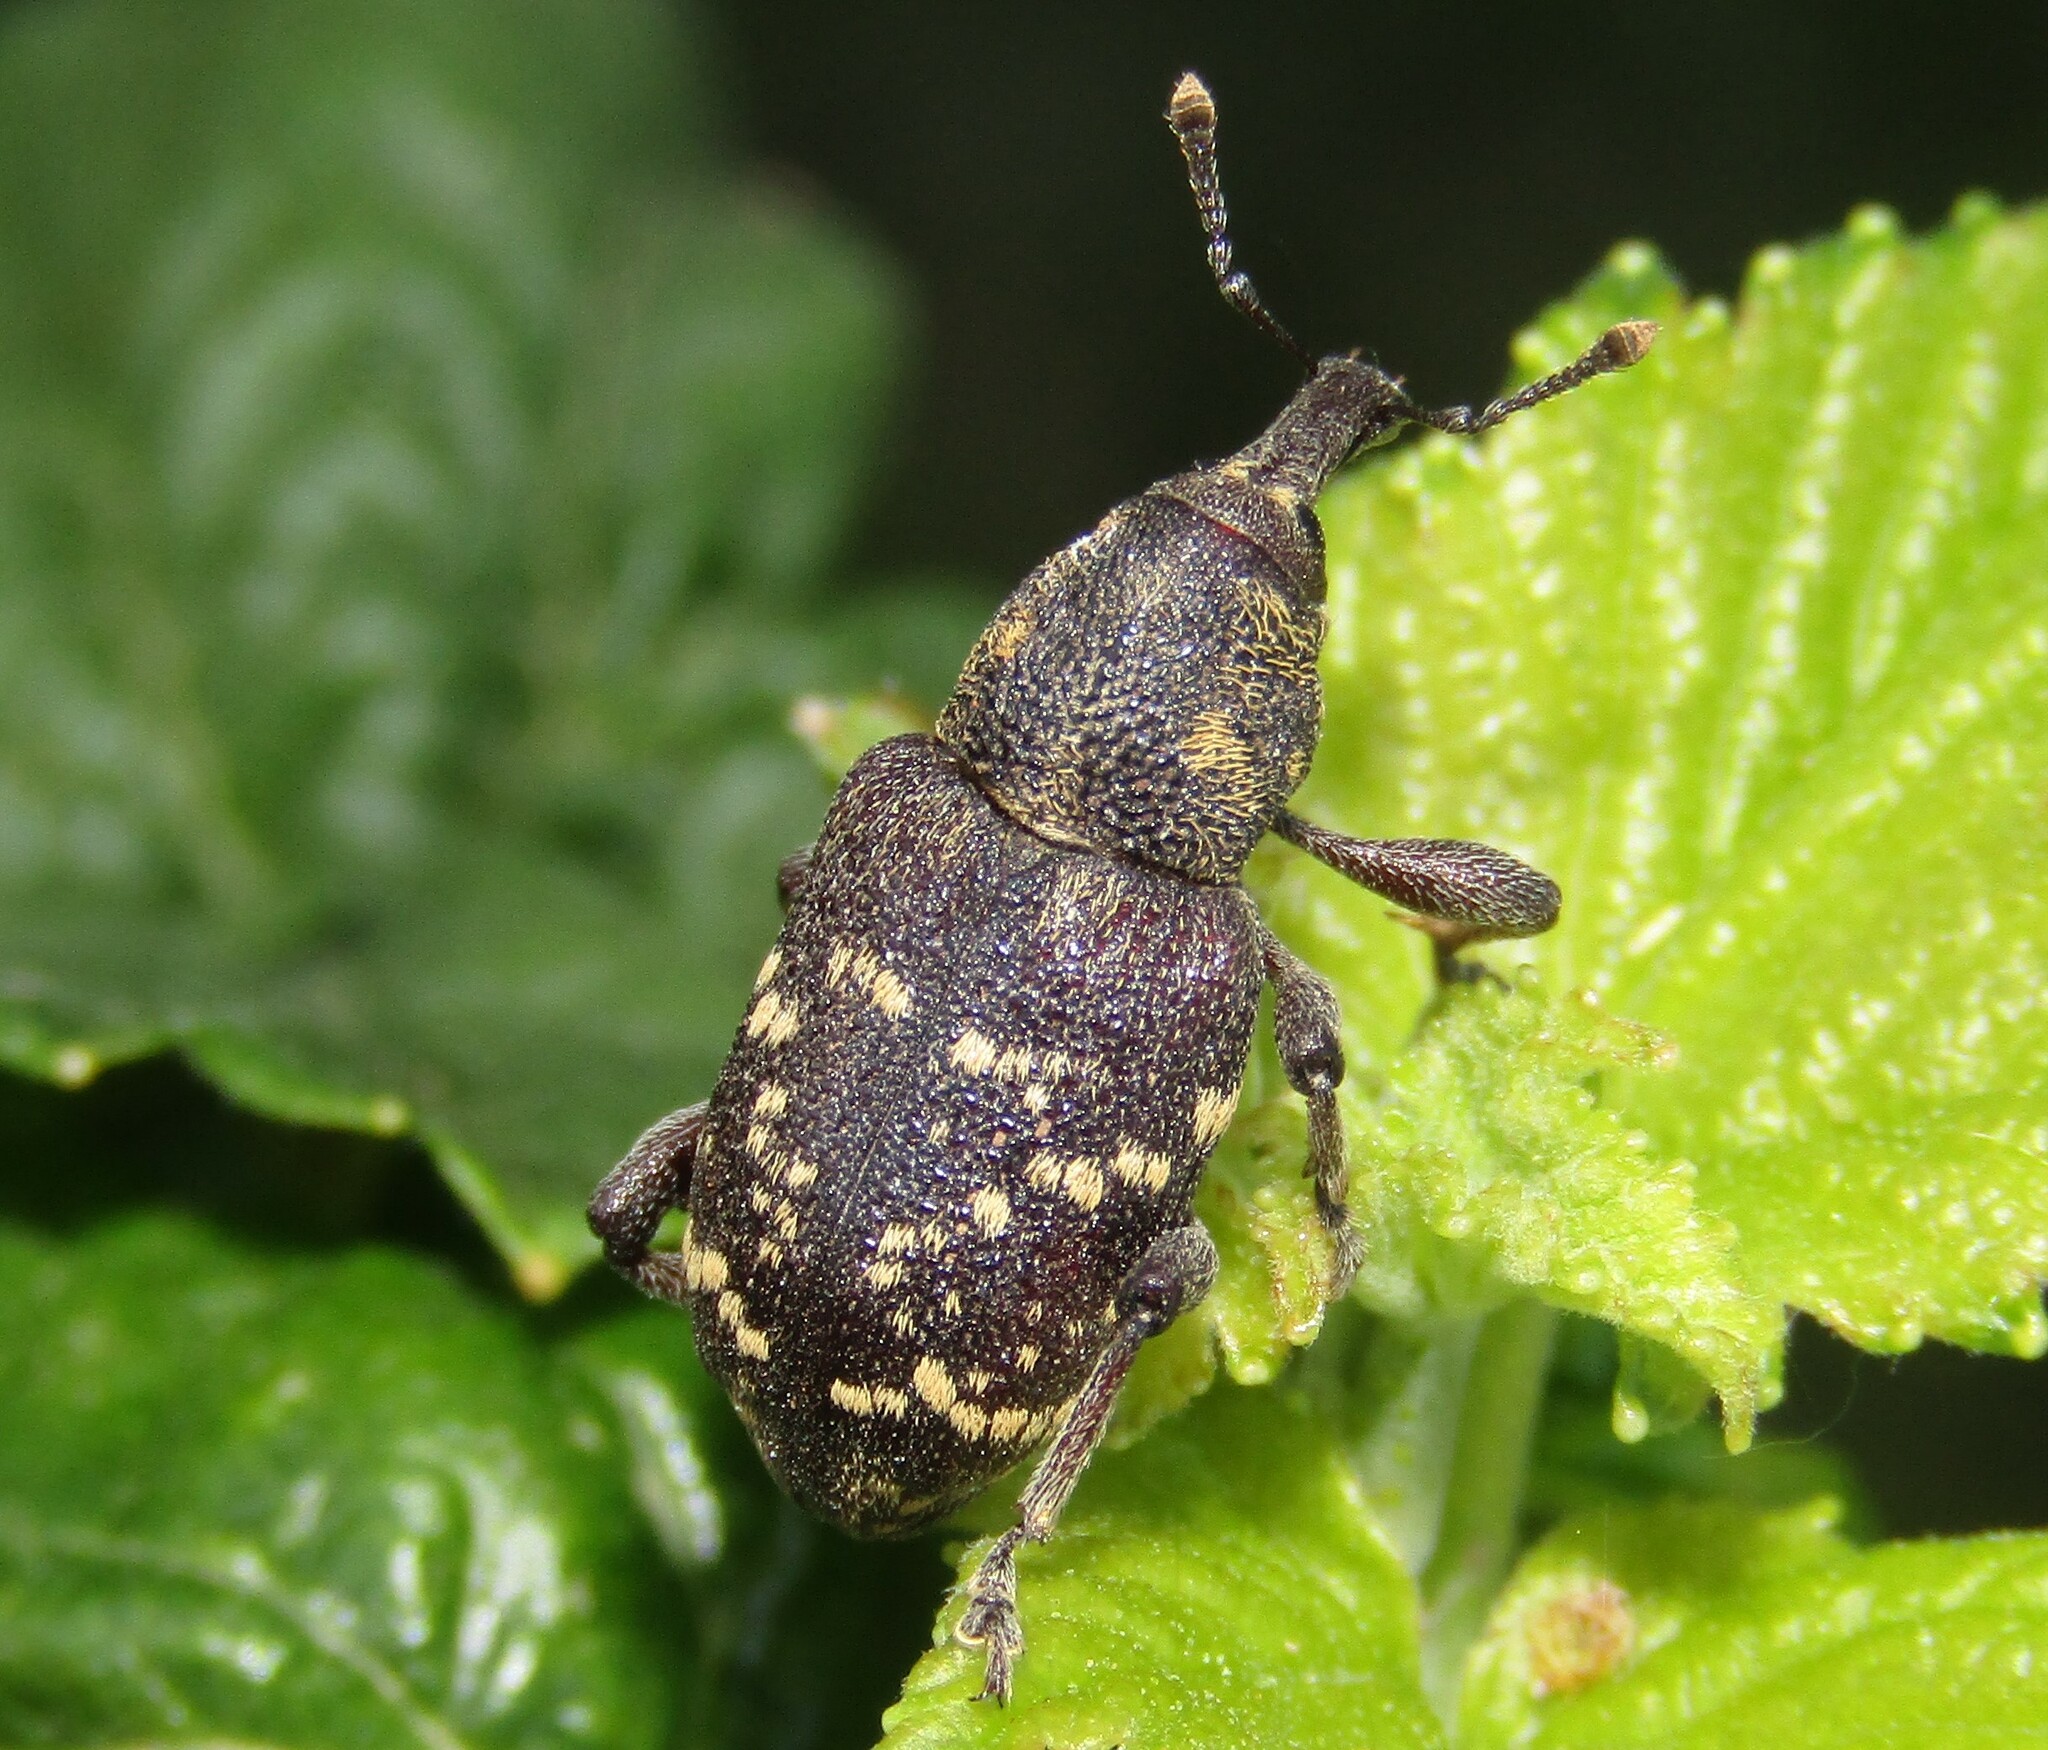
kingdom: Animalia
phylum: Arthropoda
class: Insecta
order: Coleoptera
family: Curculionidae
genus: Hylobius
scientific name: Hylobius abietis
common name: Large pine weevil
